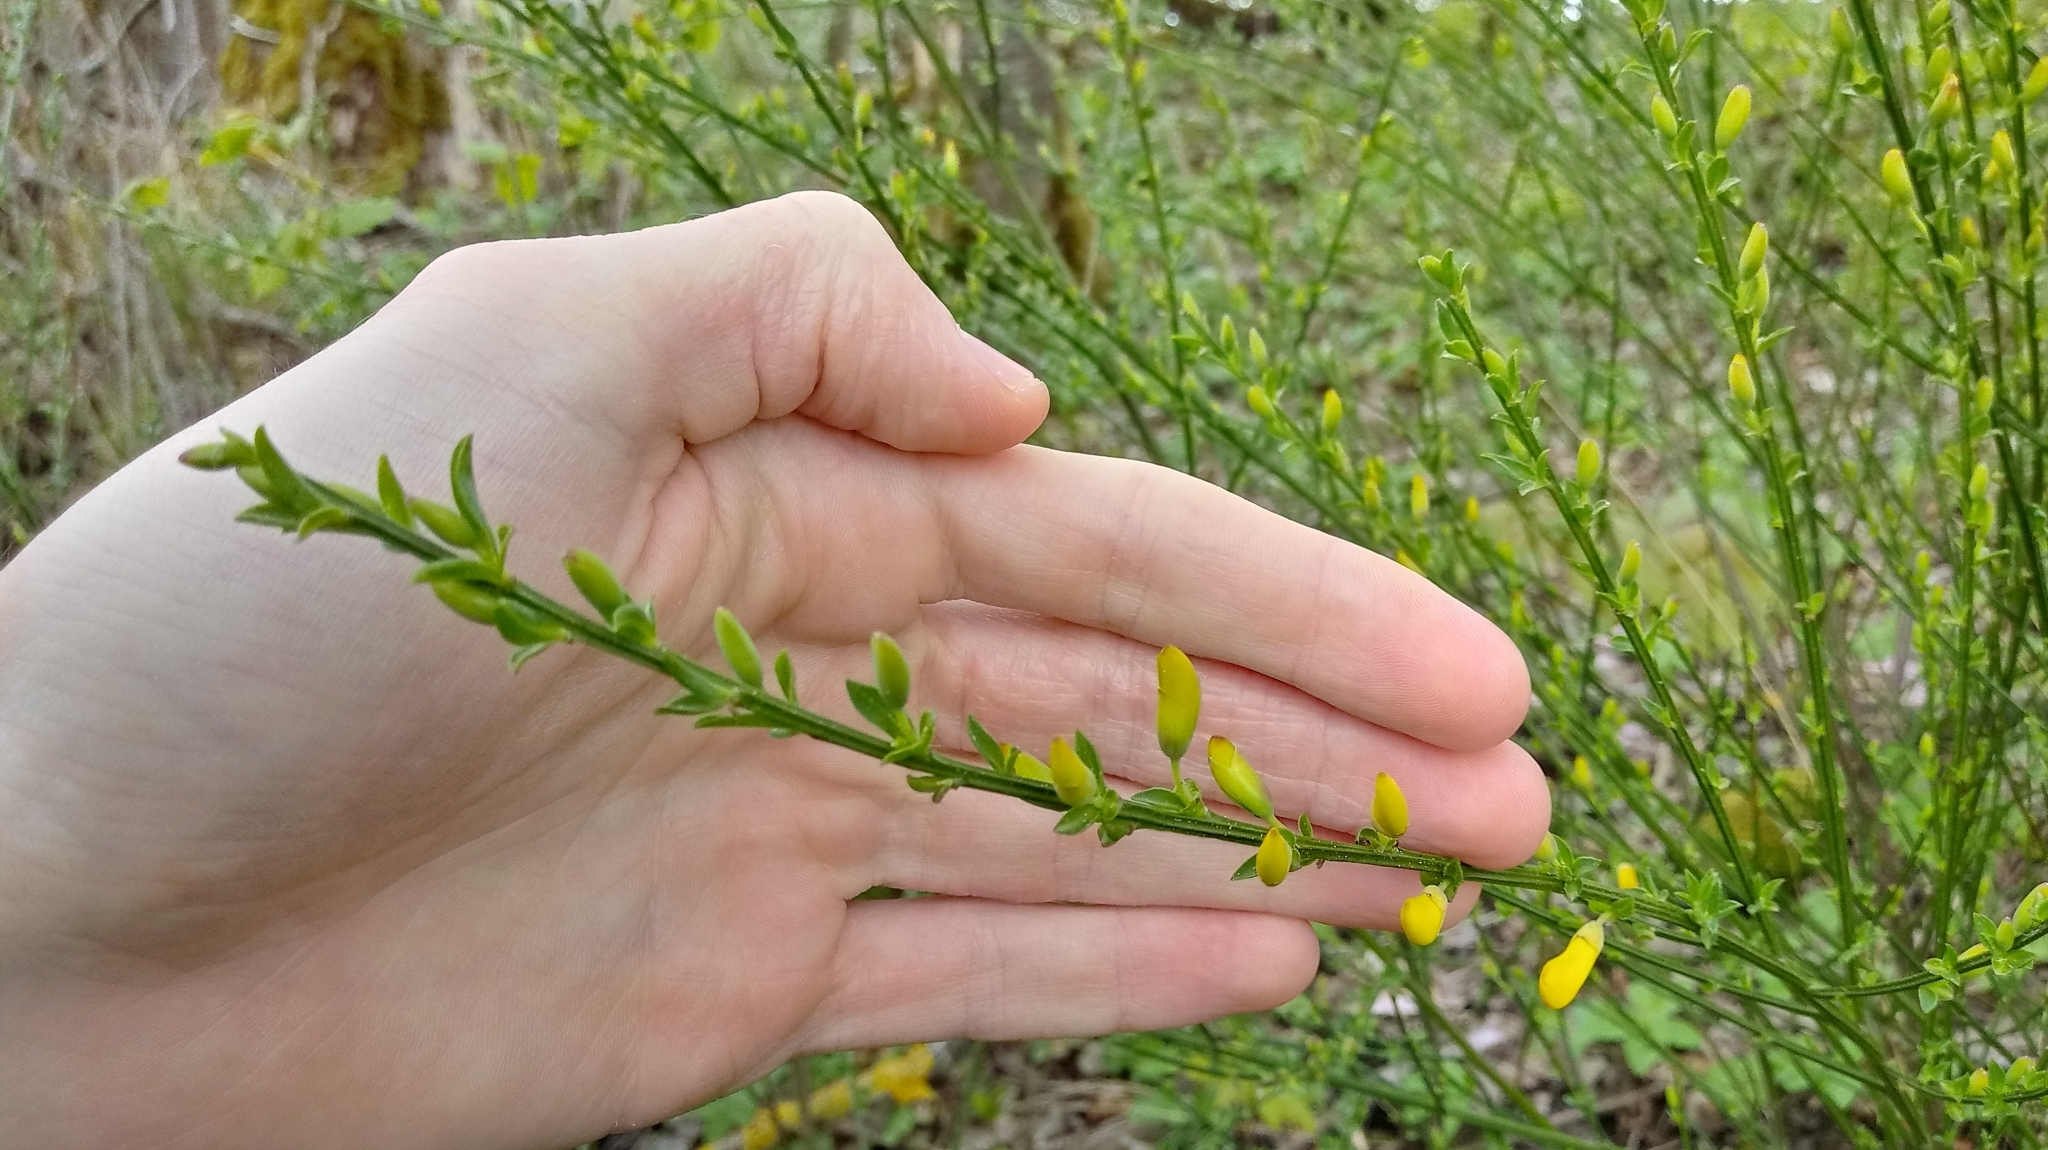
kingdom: Plantae
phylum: Tracheophyta
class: Magnoliopsida
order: Fabales
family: Fabaceae
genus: Cytisus
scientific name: Cytisus scoparius
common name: Scotch broom
